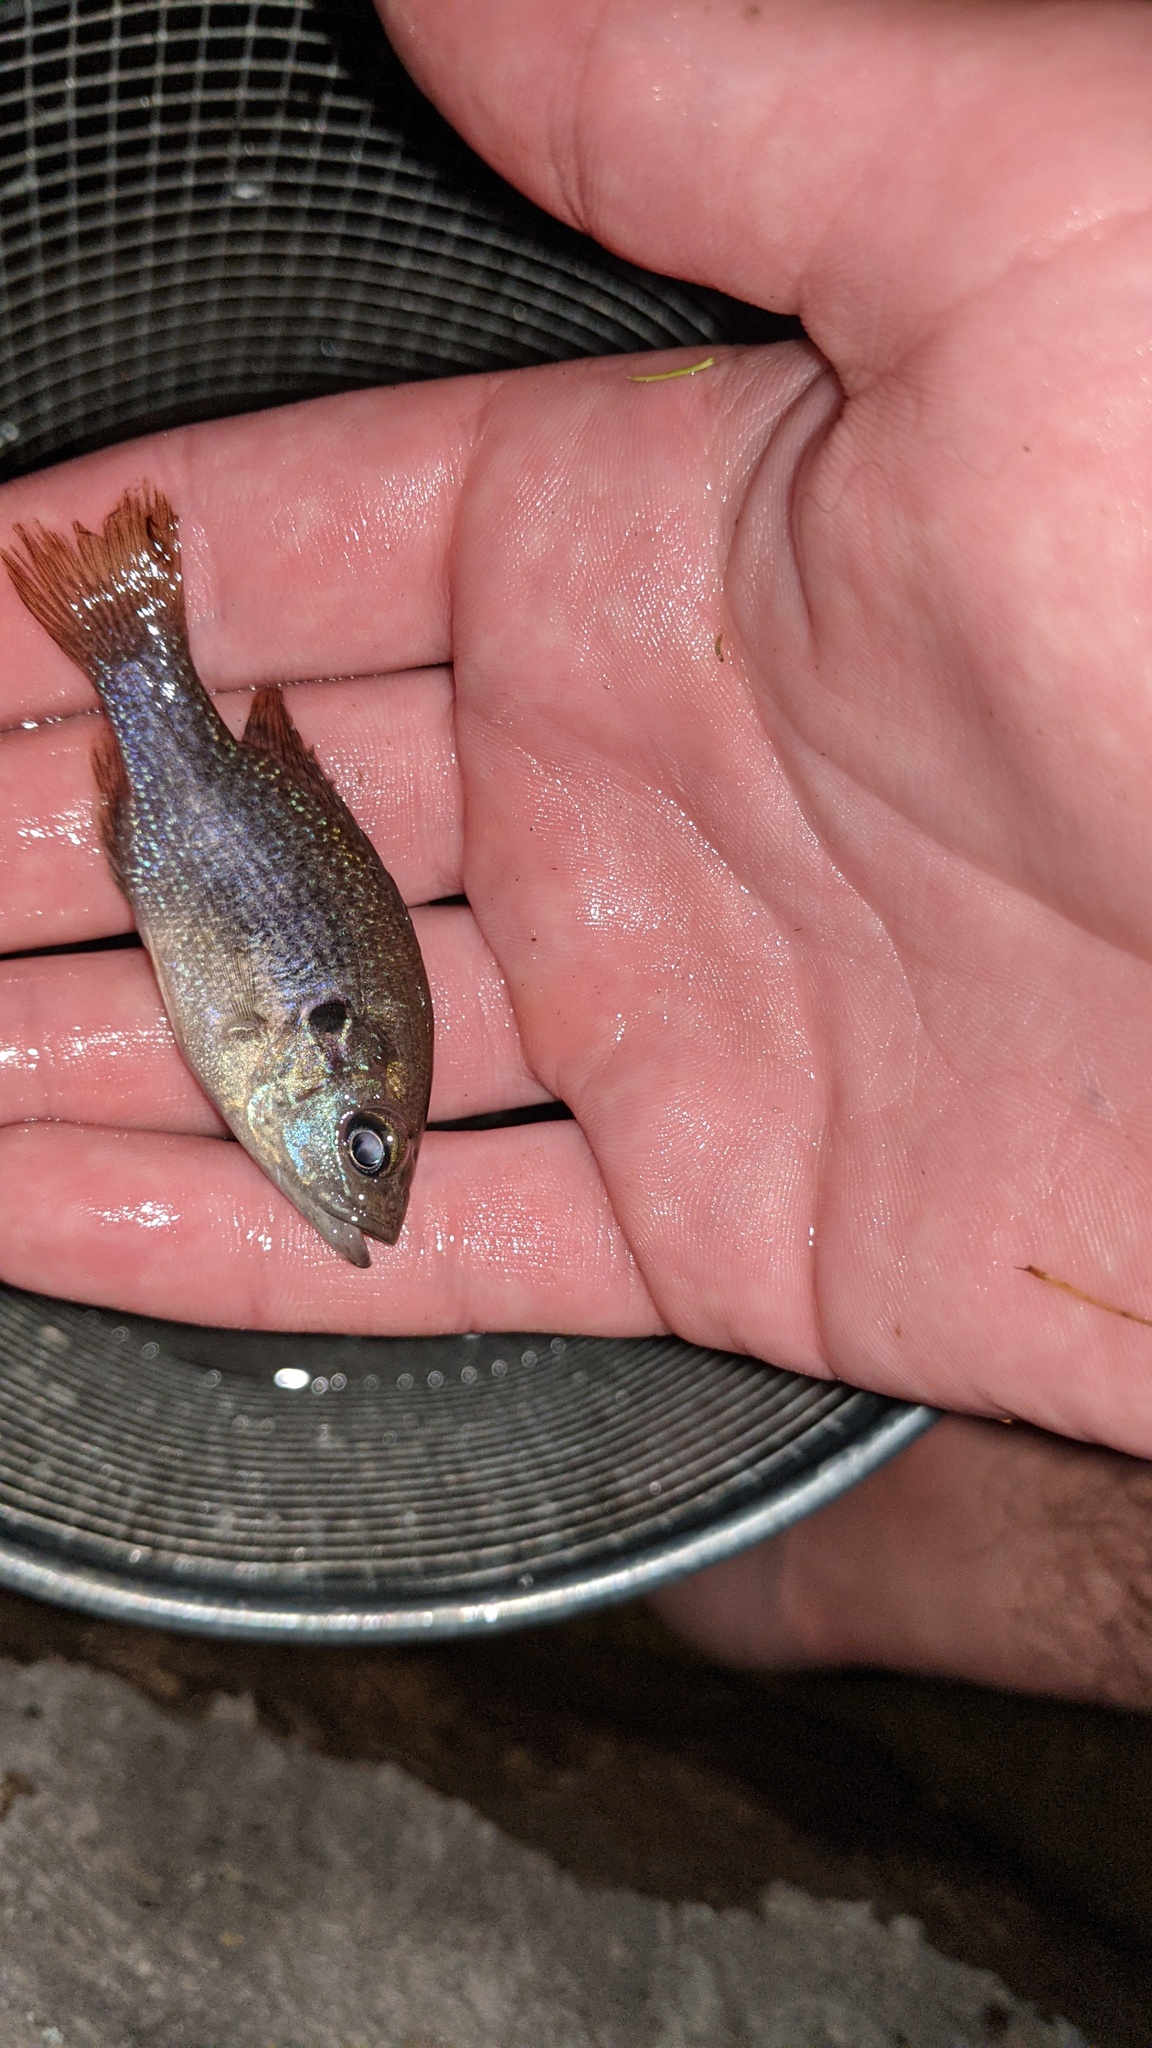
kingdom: Animalia
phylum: Chordata
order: Perciformes
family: Centrarchidae
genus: Lepomis
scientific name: Lepomis cyanellus
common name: Green sunfish
